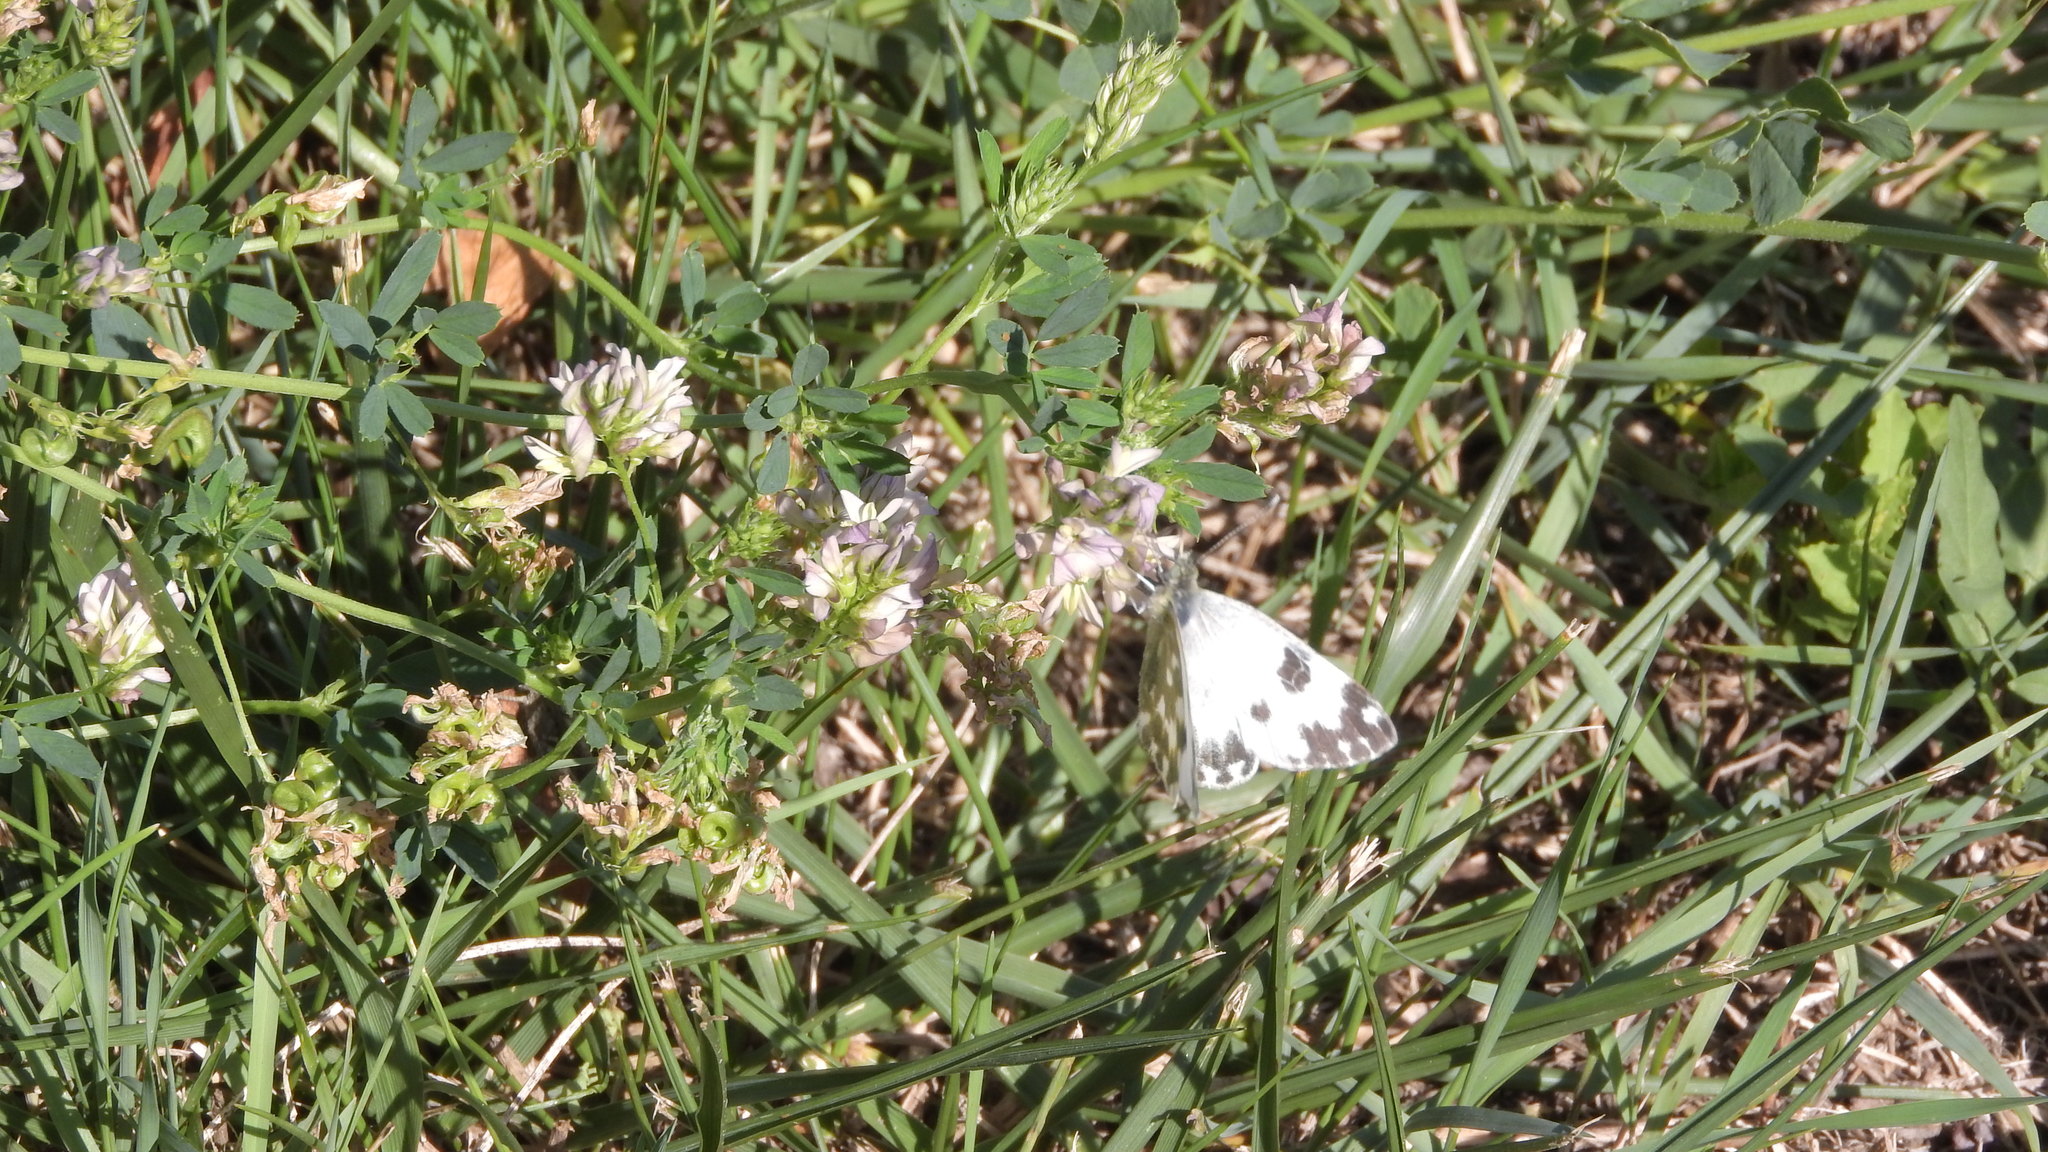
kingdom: Animalia
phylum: Arthropoda
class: Insecta
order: Lepidoptera
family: Pieridae
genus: Pontia
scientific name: Pontia edusa
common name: Eastern bath white
